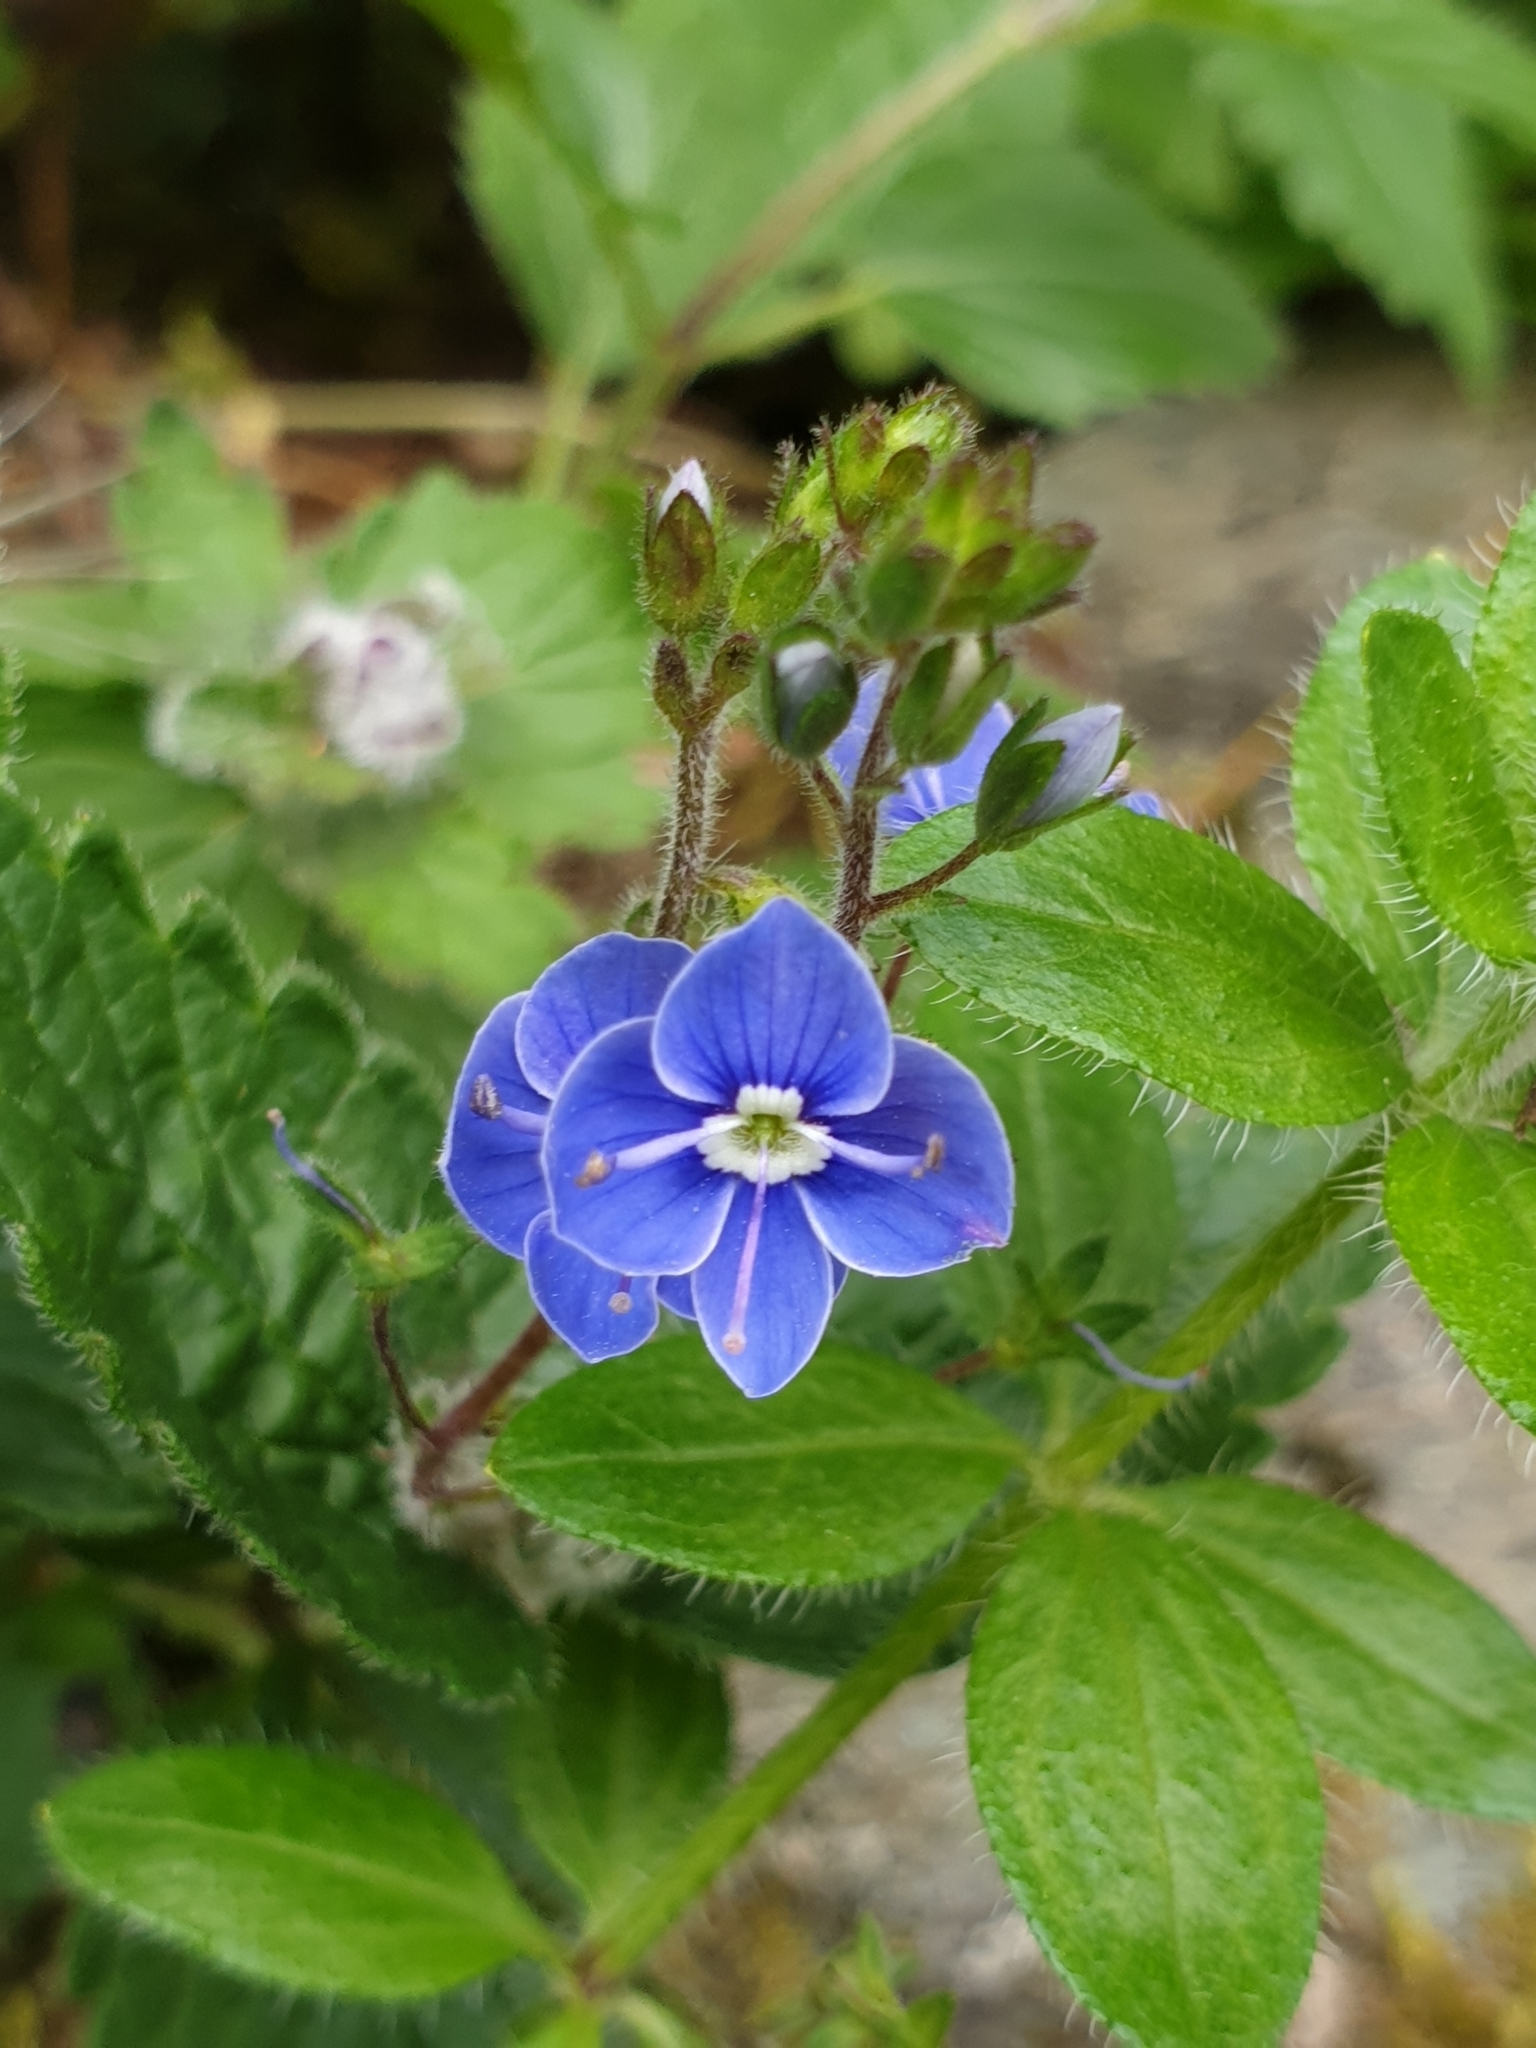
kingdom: Plantae
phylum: Tracheophyta
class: Magnoliopsida
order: Lamiales
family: Plantaginaceae
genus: Veronica
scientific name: Veronica chamaedrys
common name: Germander speedwell
